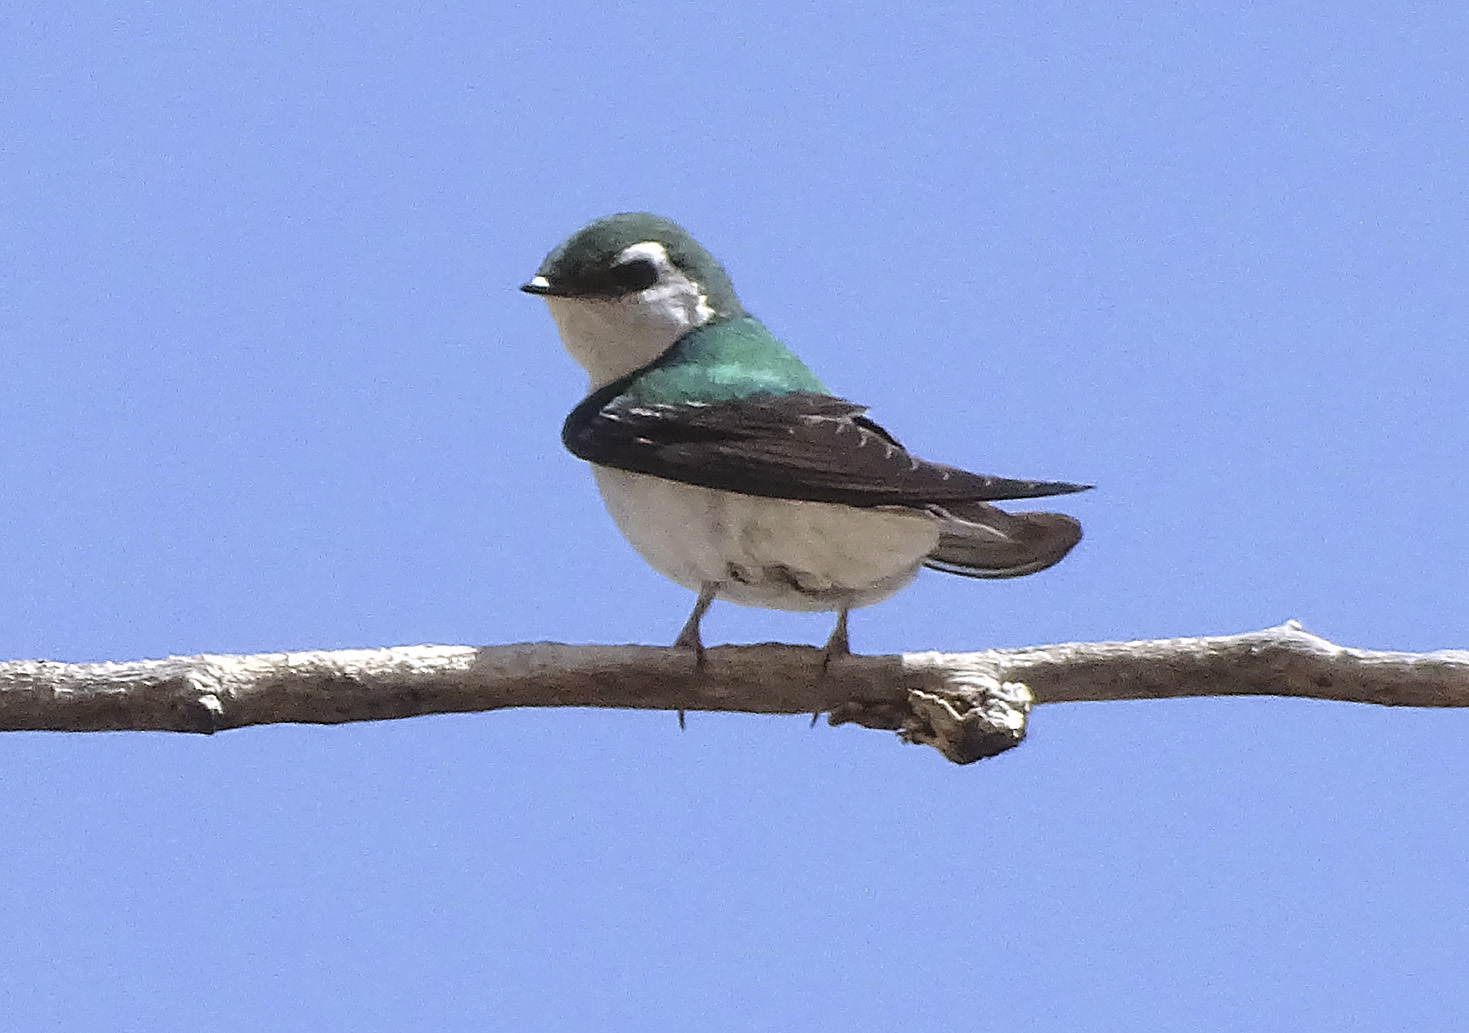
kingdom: Animalia
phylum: Chordata
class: Aves
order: Passeriformes
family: Hirundinidae
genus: Tachycineta
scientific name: Tachycineta thalassina
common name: Violet-green swallow
